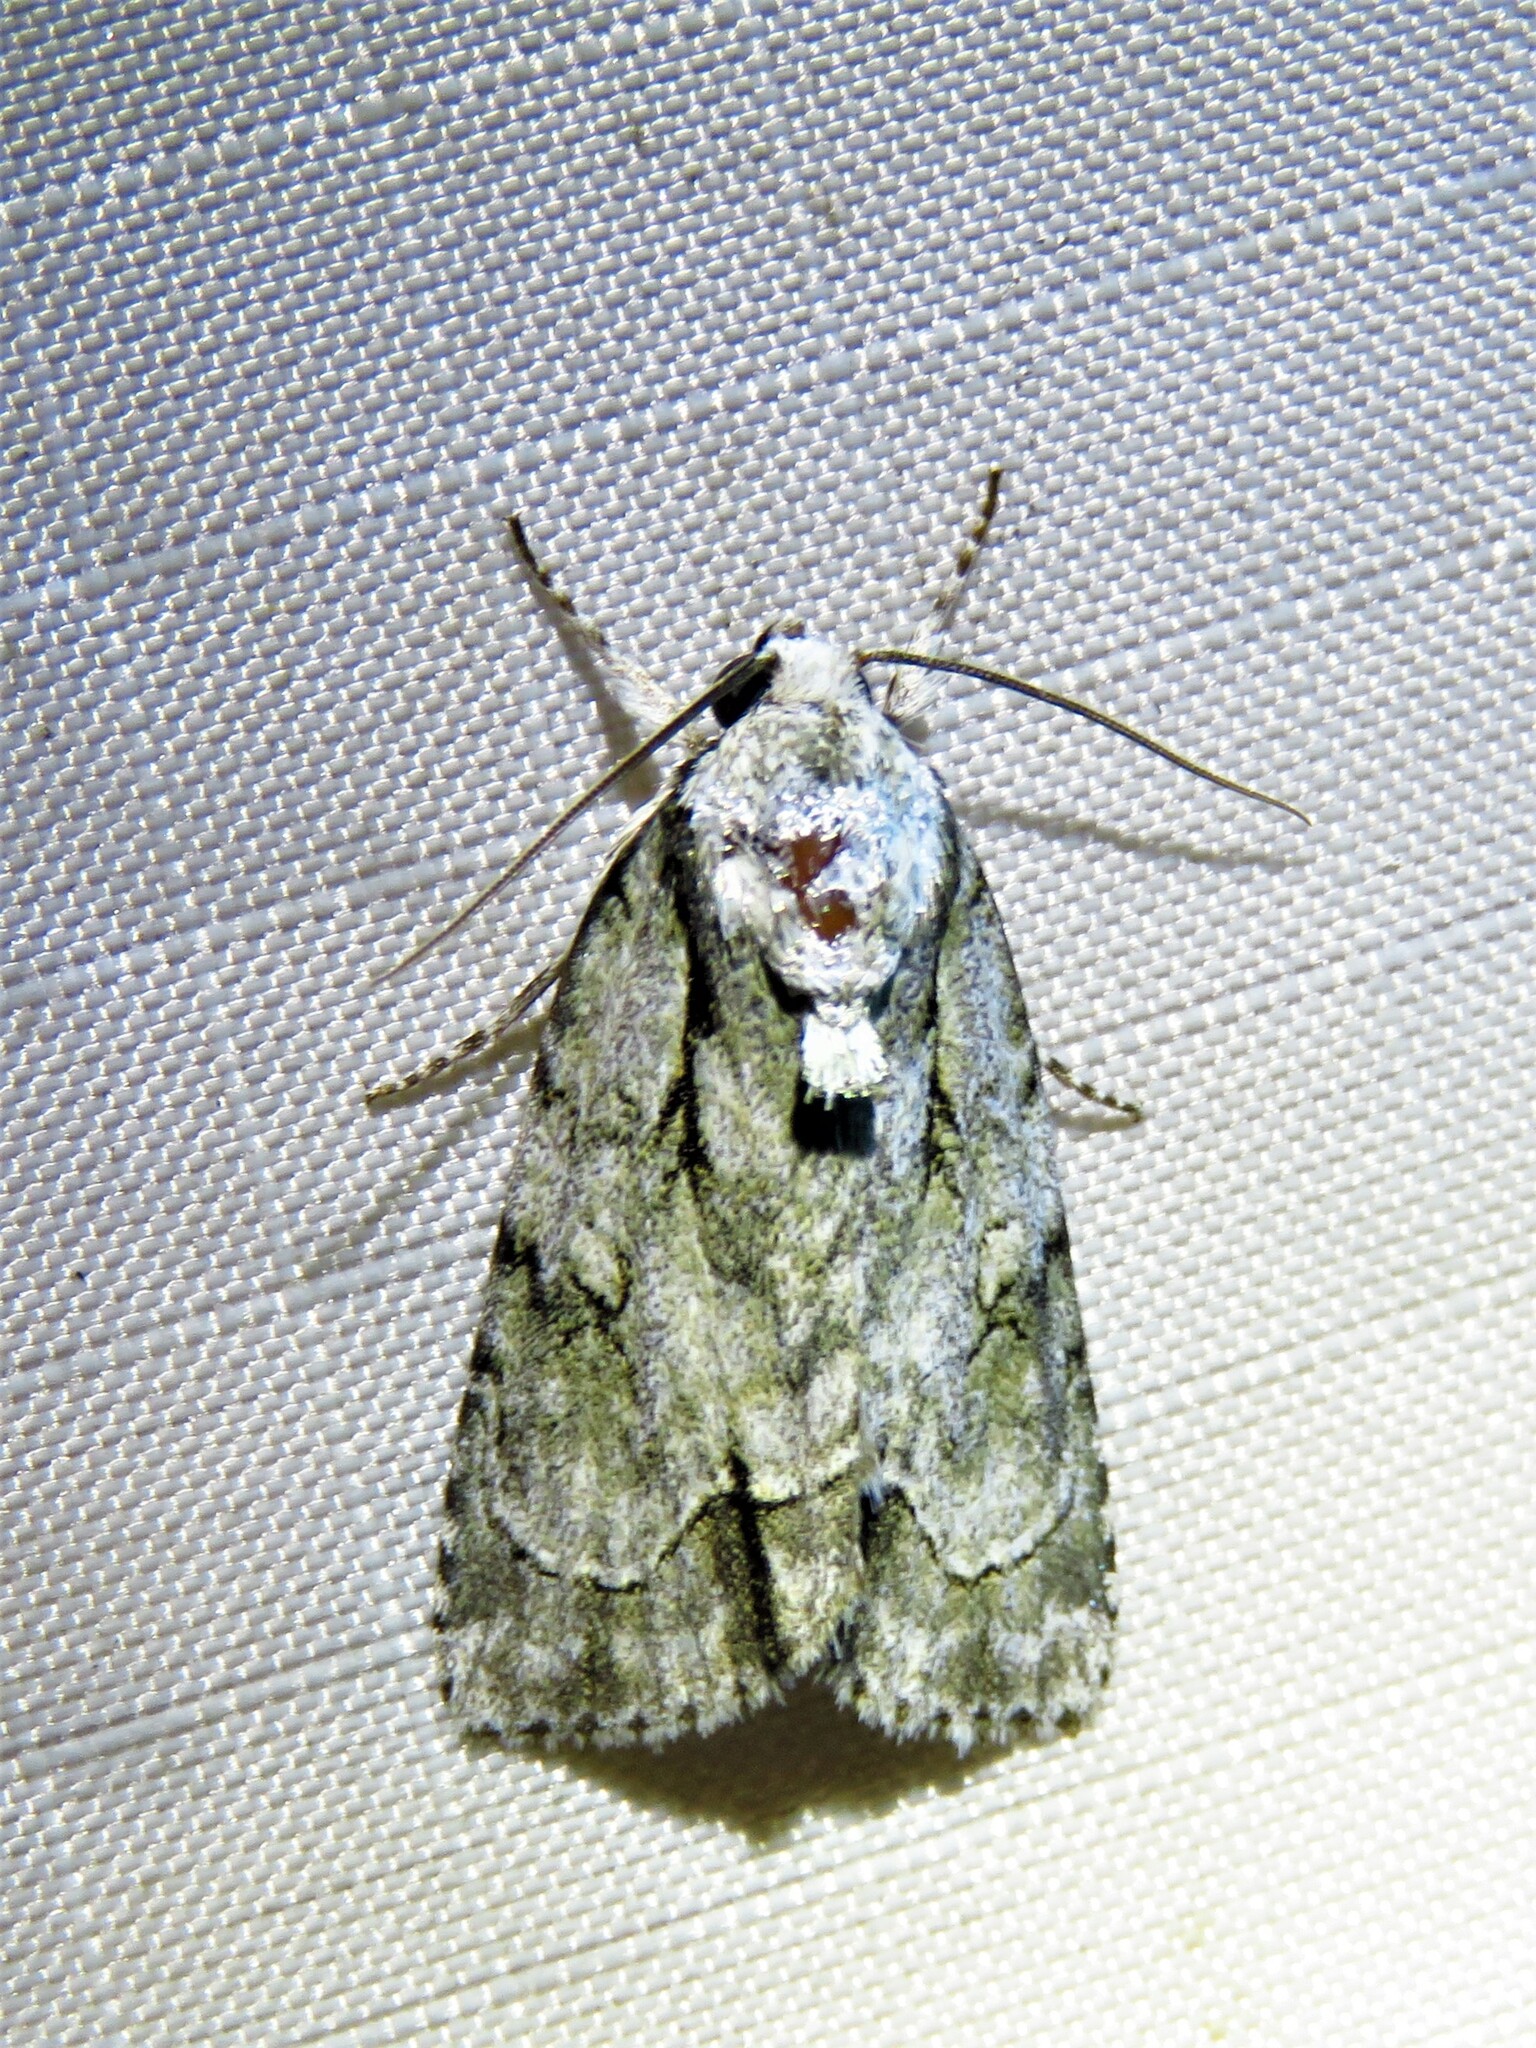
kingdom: Animalia
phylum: Arthropoda
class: Insecta
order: Lepidoptera
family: Noctuidae
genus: Acronicta
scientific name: Acronicta vinnula
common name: Delightful dagger
